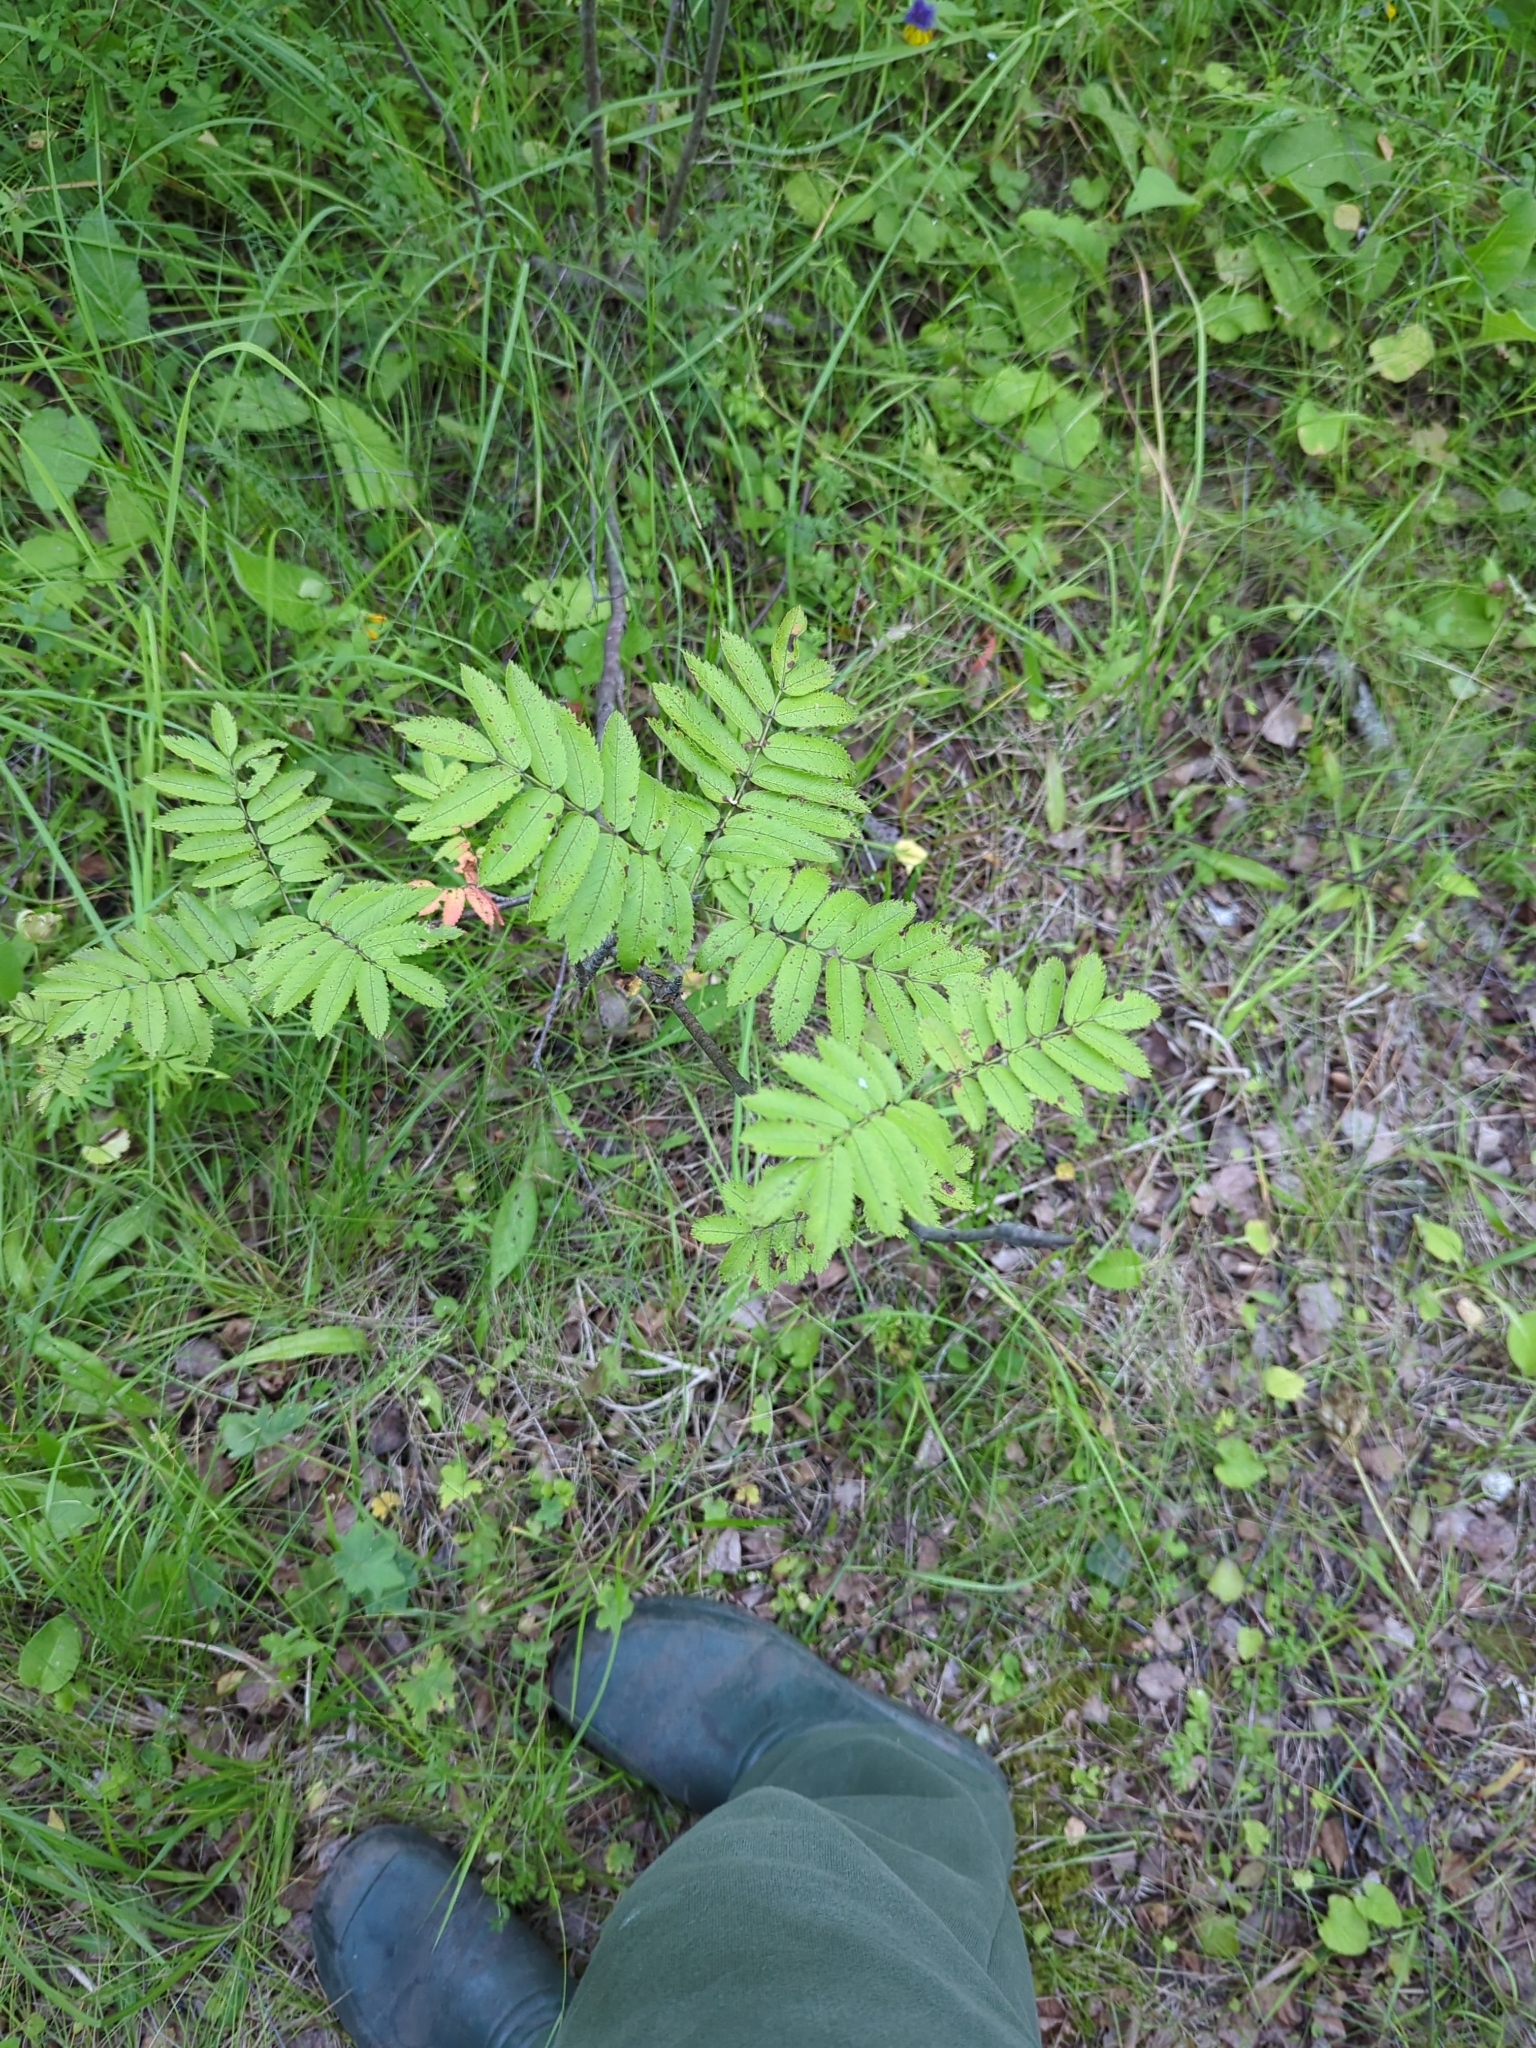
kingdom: Plantae
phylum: Tracheophyta
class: Magnoliopsida
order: Rosales
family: Rosaceae
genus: Sorbus
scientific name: Sorbus aucuparia
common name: Rowan
